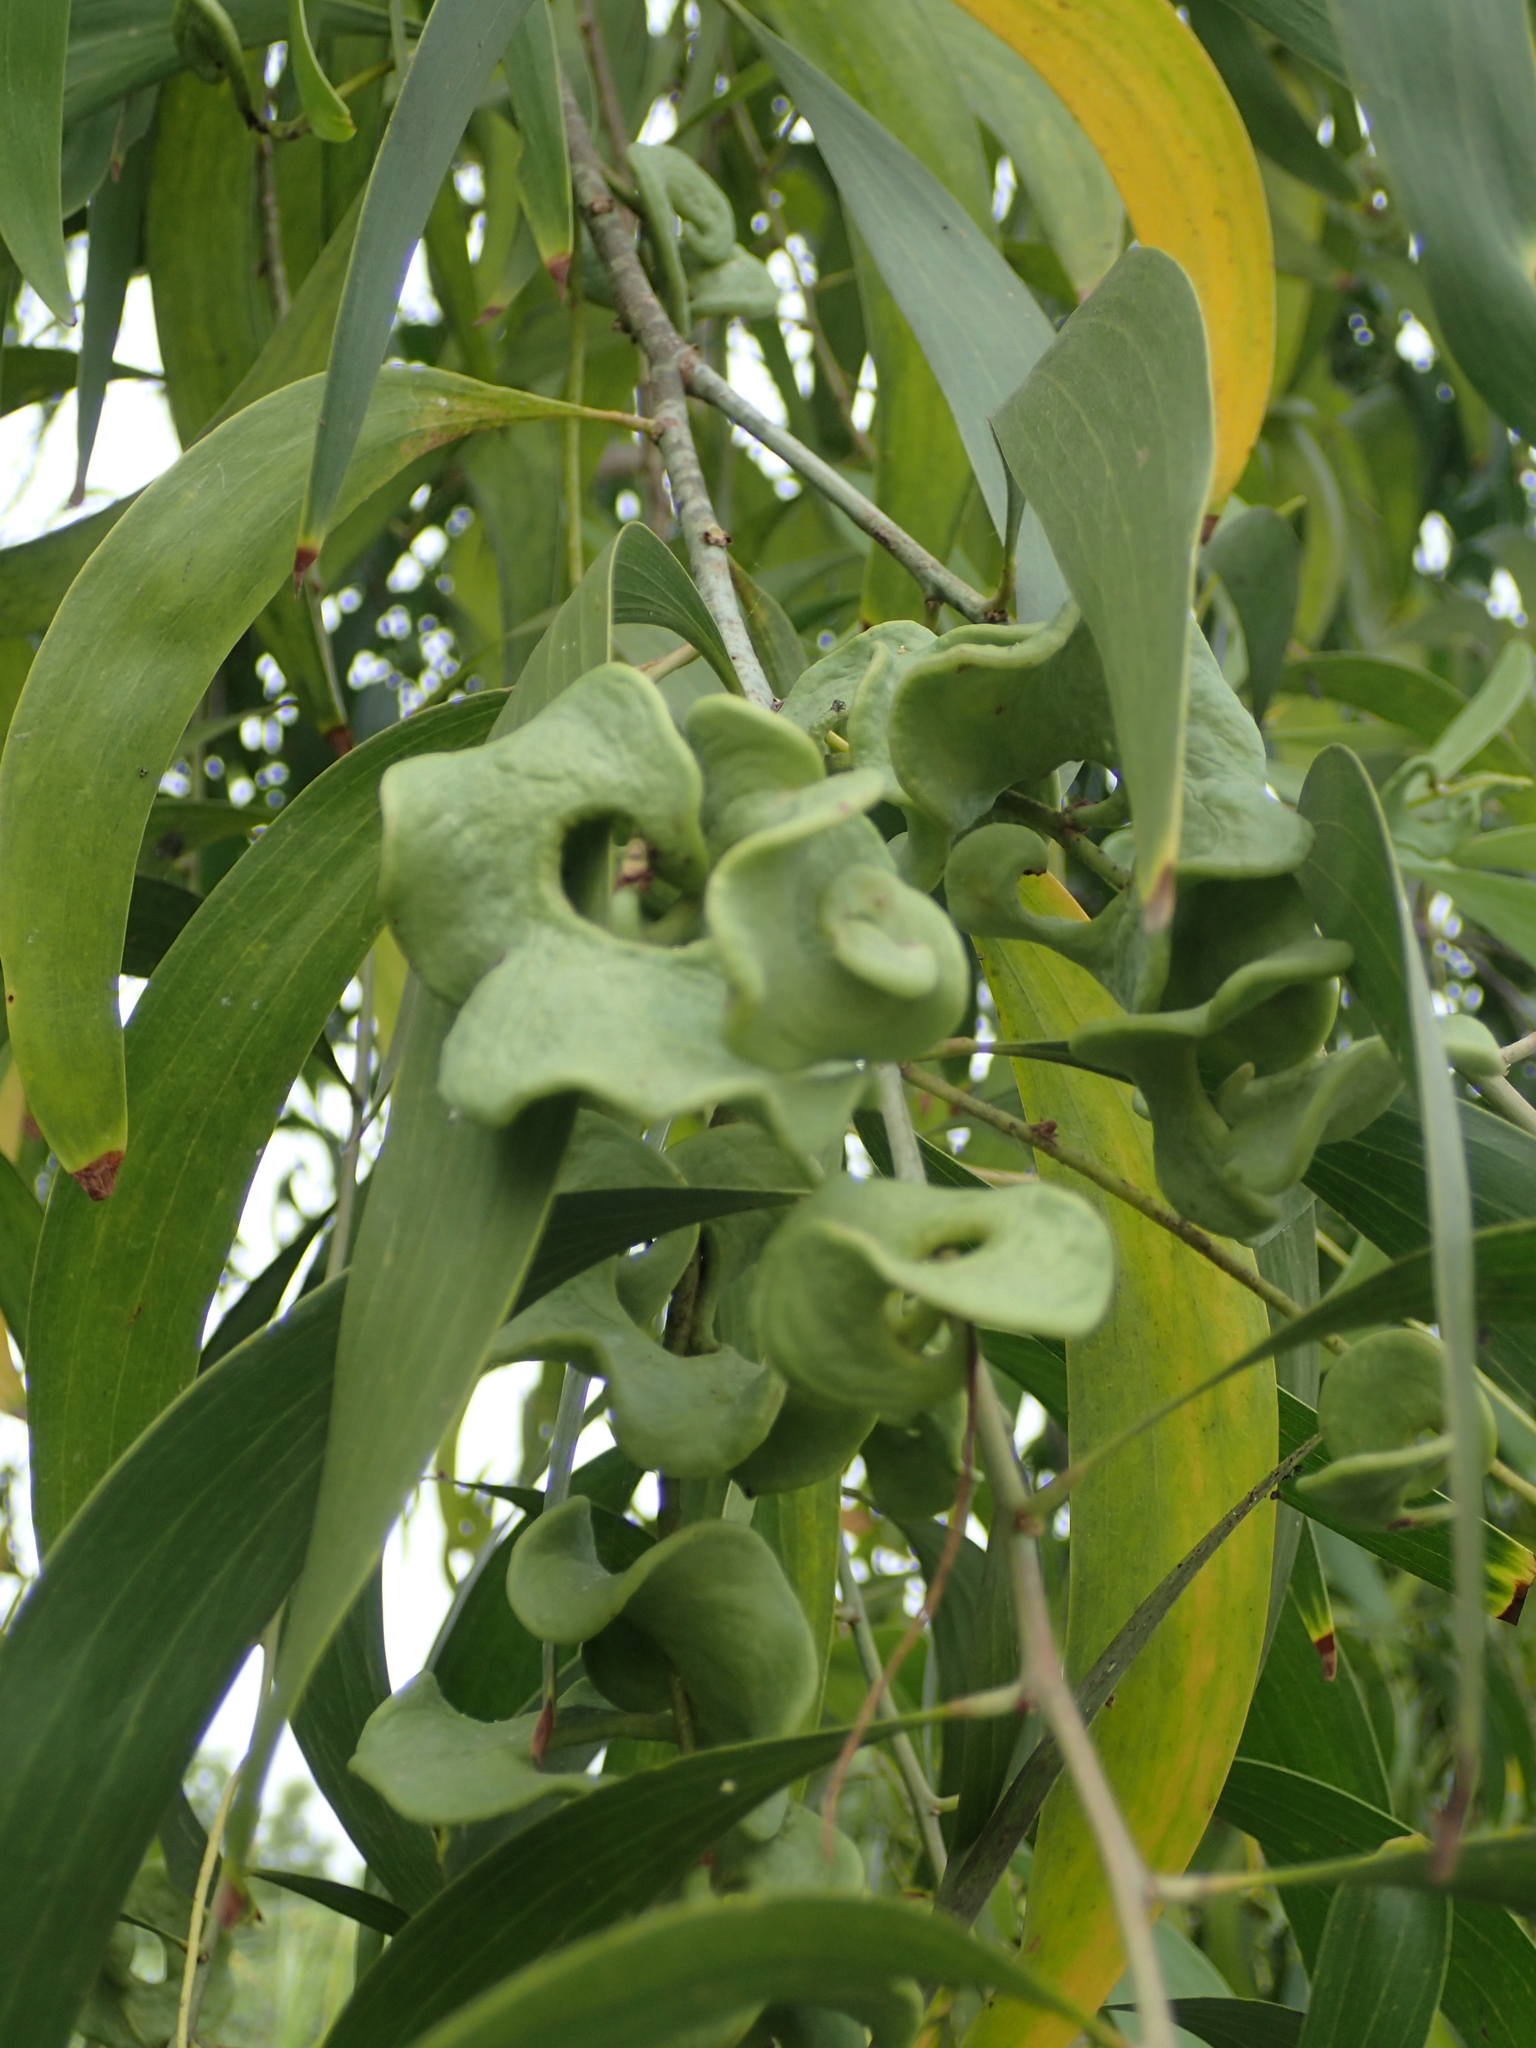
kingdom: Plantae
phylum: Tracheophyta
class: Magnoliopsida
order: Fabales
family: Fabaceae
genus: Acacia
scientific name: Acacia auriculiformis
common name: Earleaf acacia
